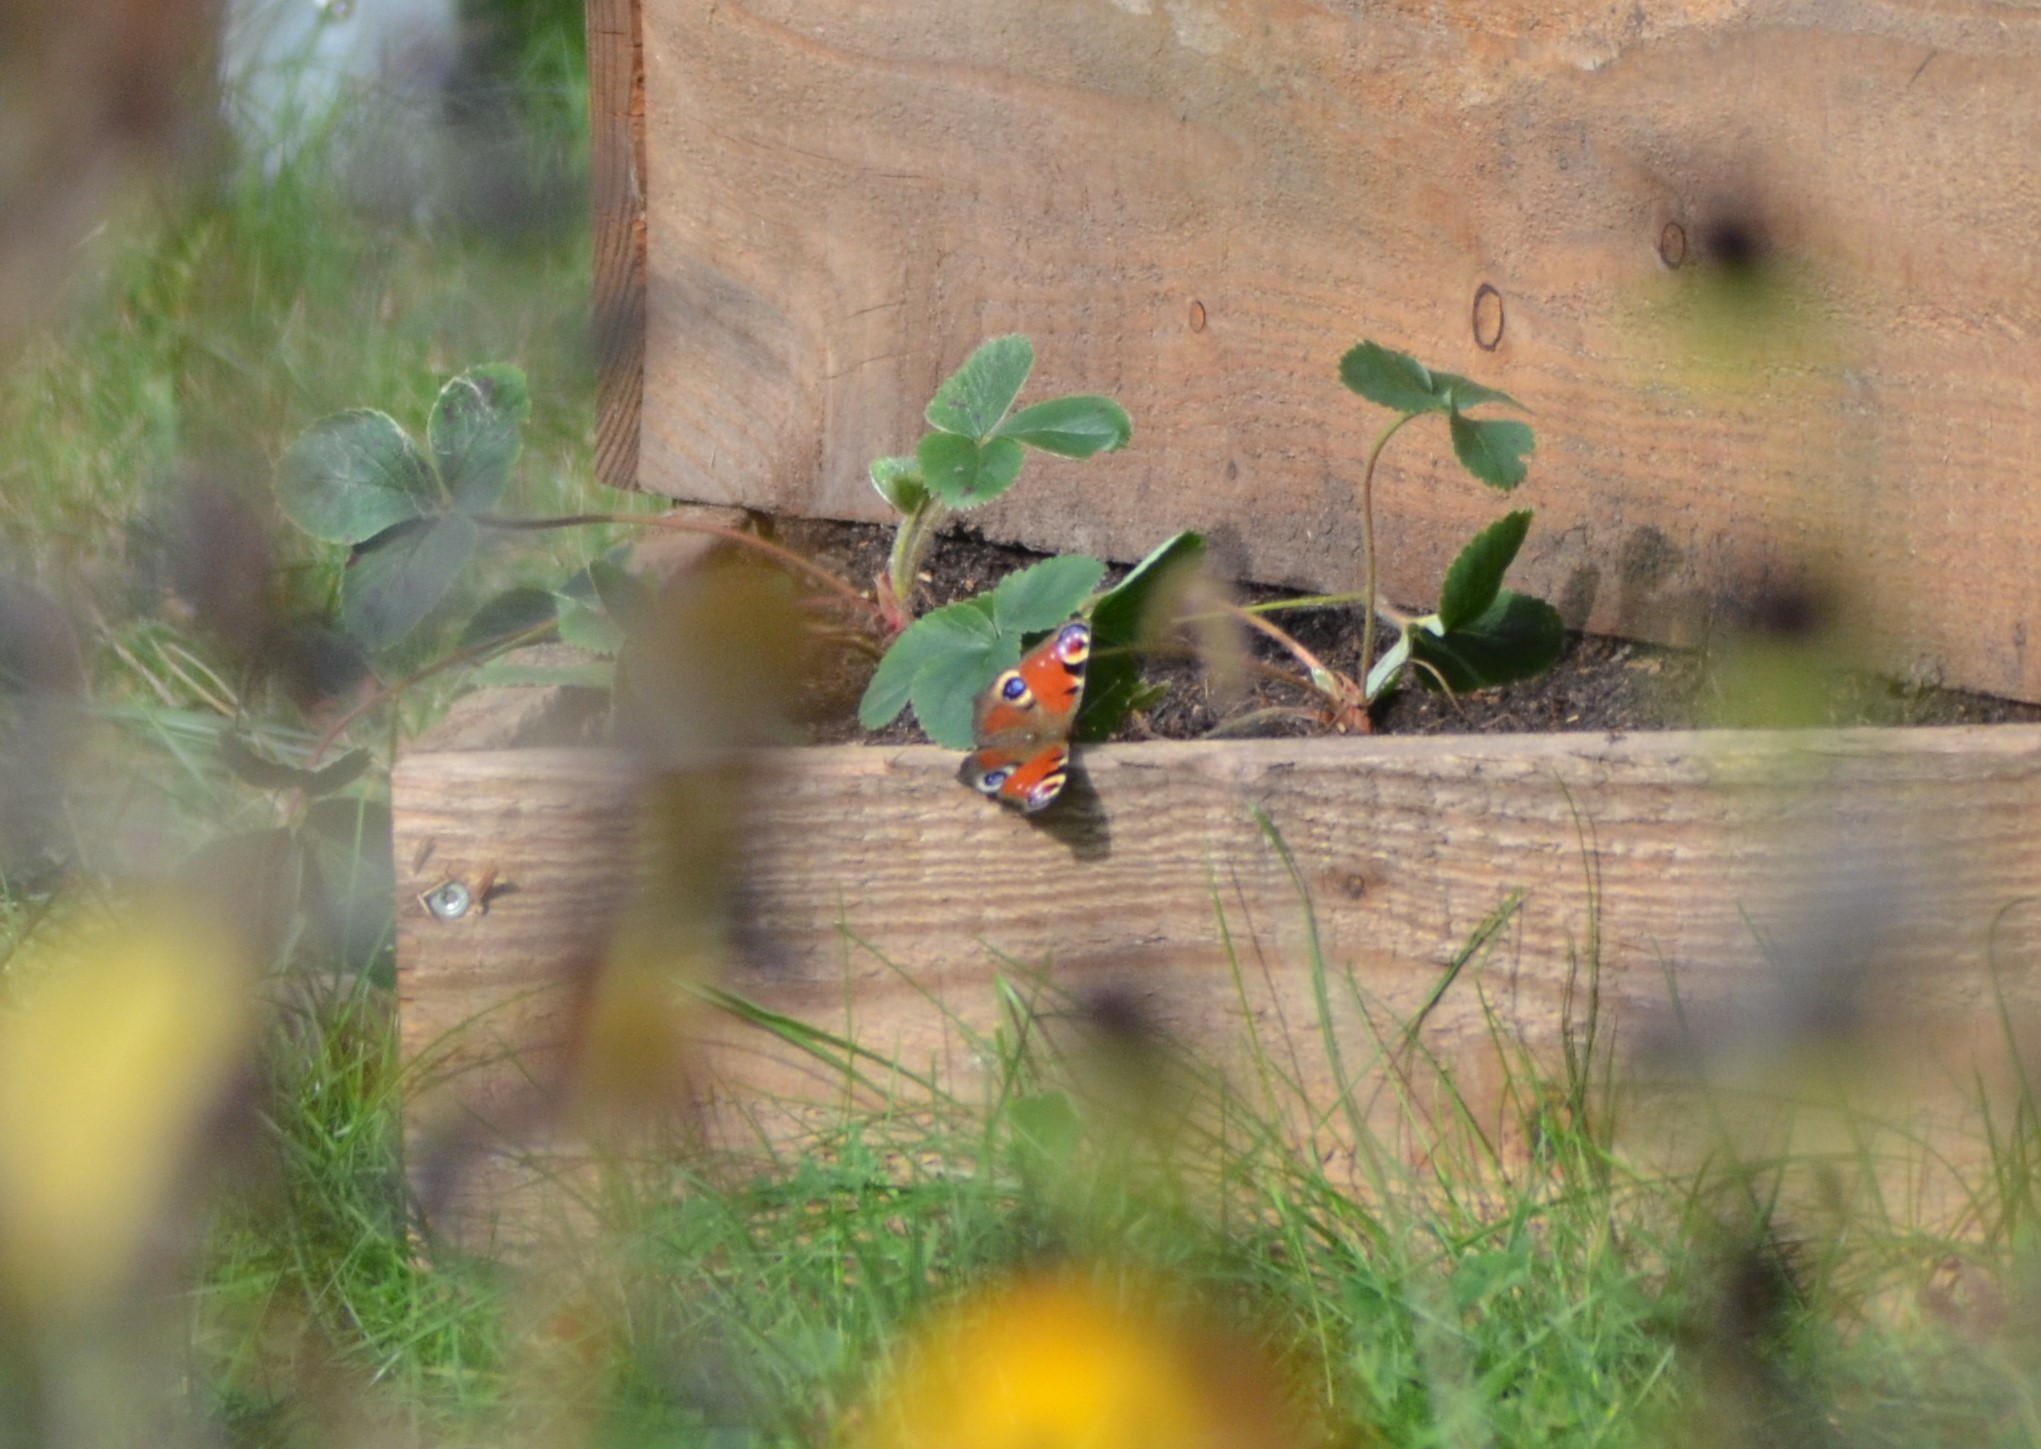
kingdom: Animalia
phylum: Arthropoda
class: Insecta
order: Lepidoptera
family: Nymphalidae
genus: Aglais
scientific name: Aglais io
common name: Peacock
